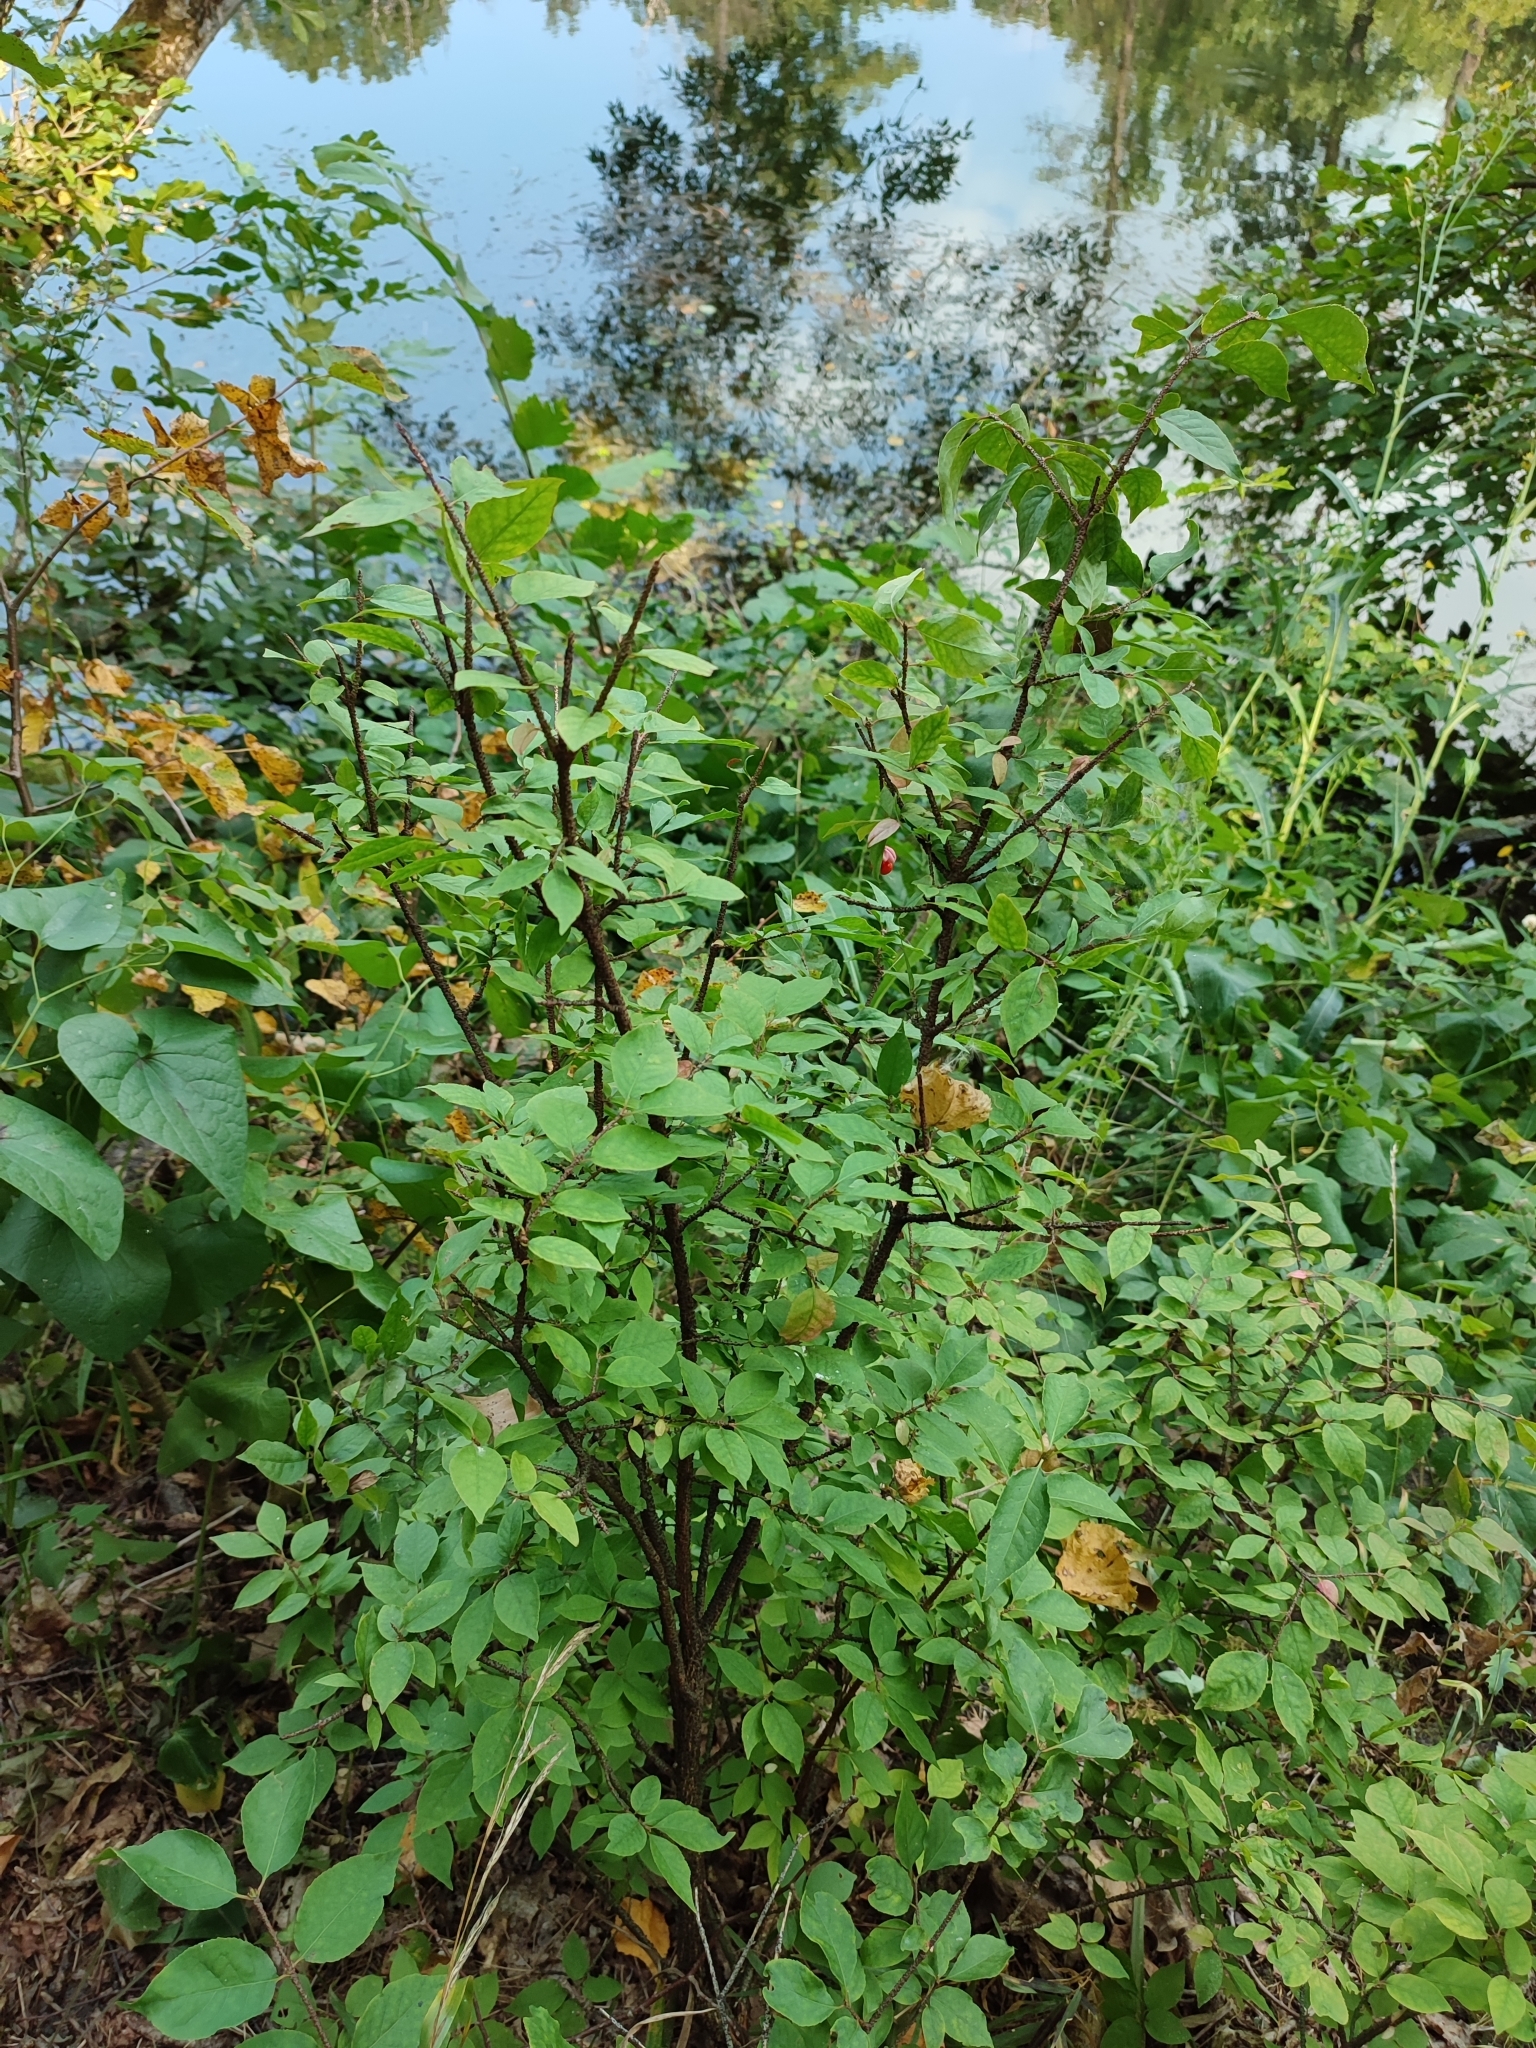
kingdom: Plantae
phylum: Tracheophyta
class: Magnoliopsida
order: Celastrales
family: Celastraceae
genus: Euonymus
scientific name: Euonymus verrucosus
